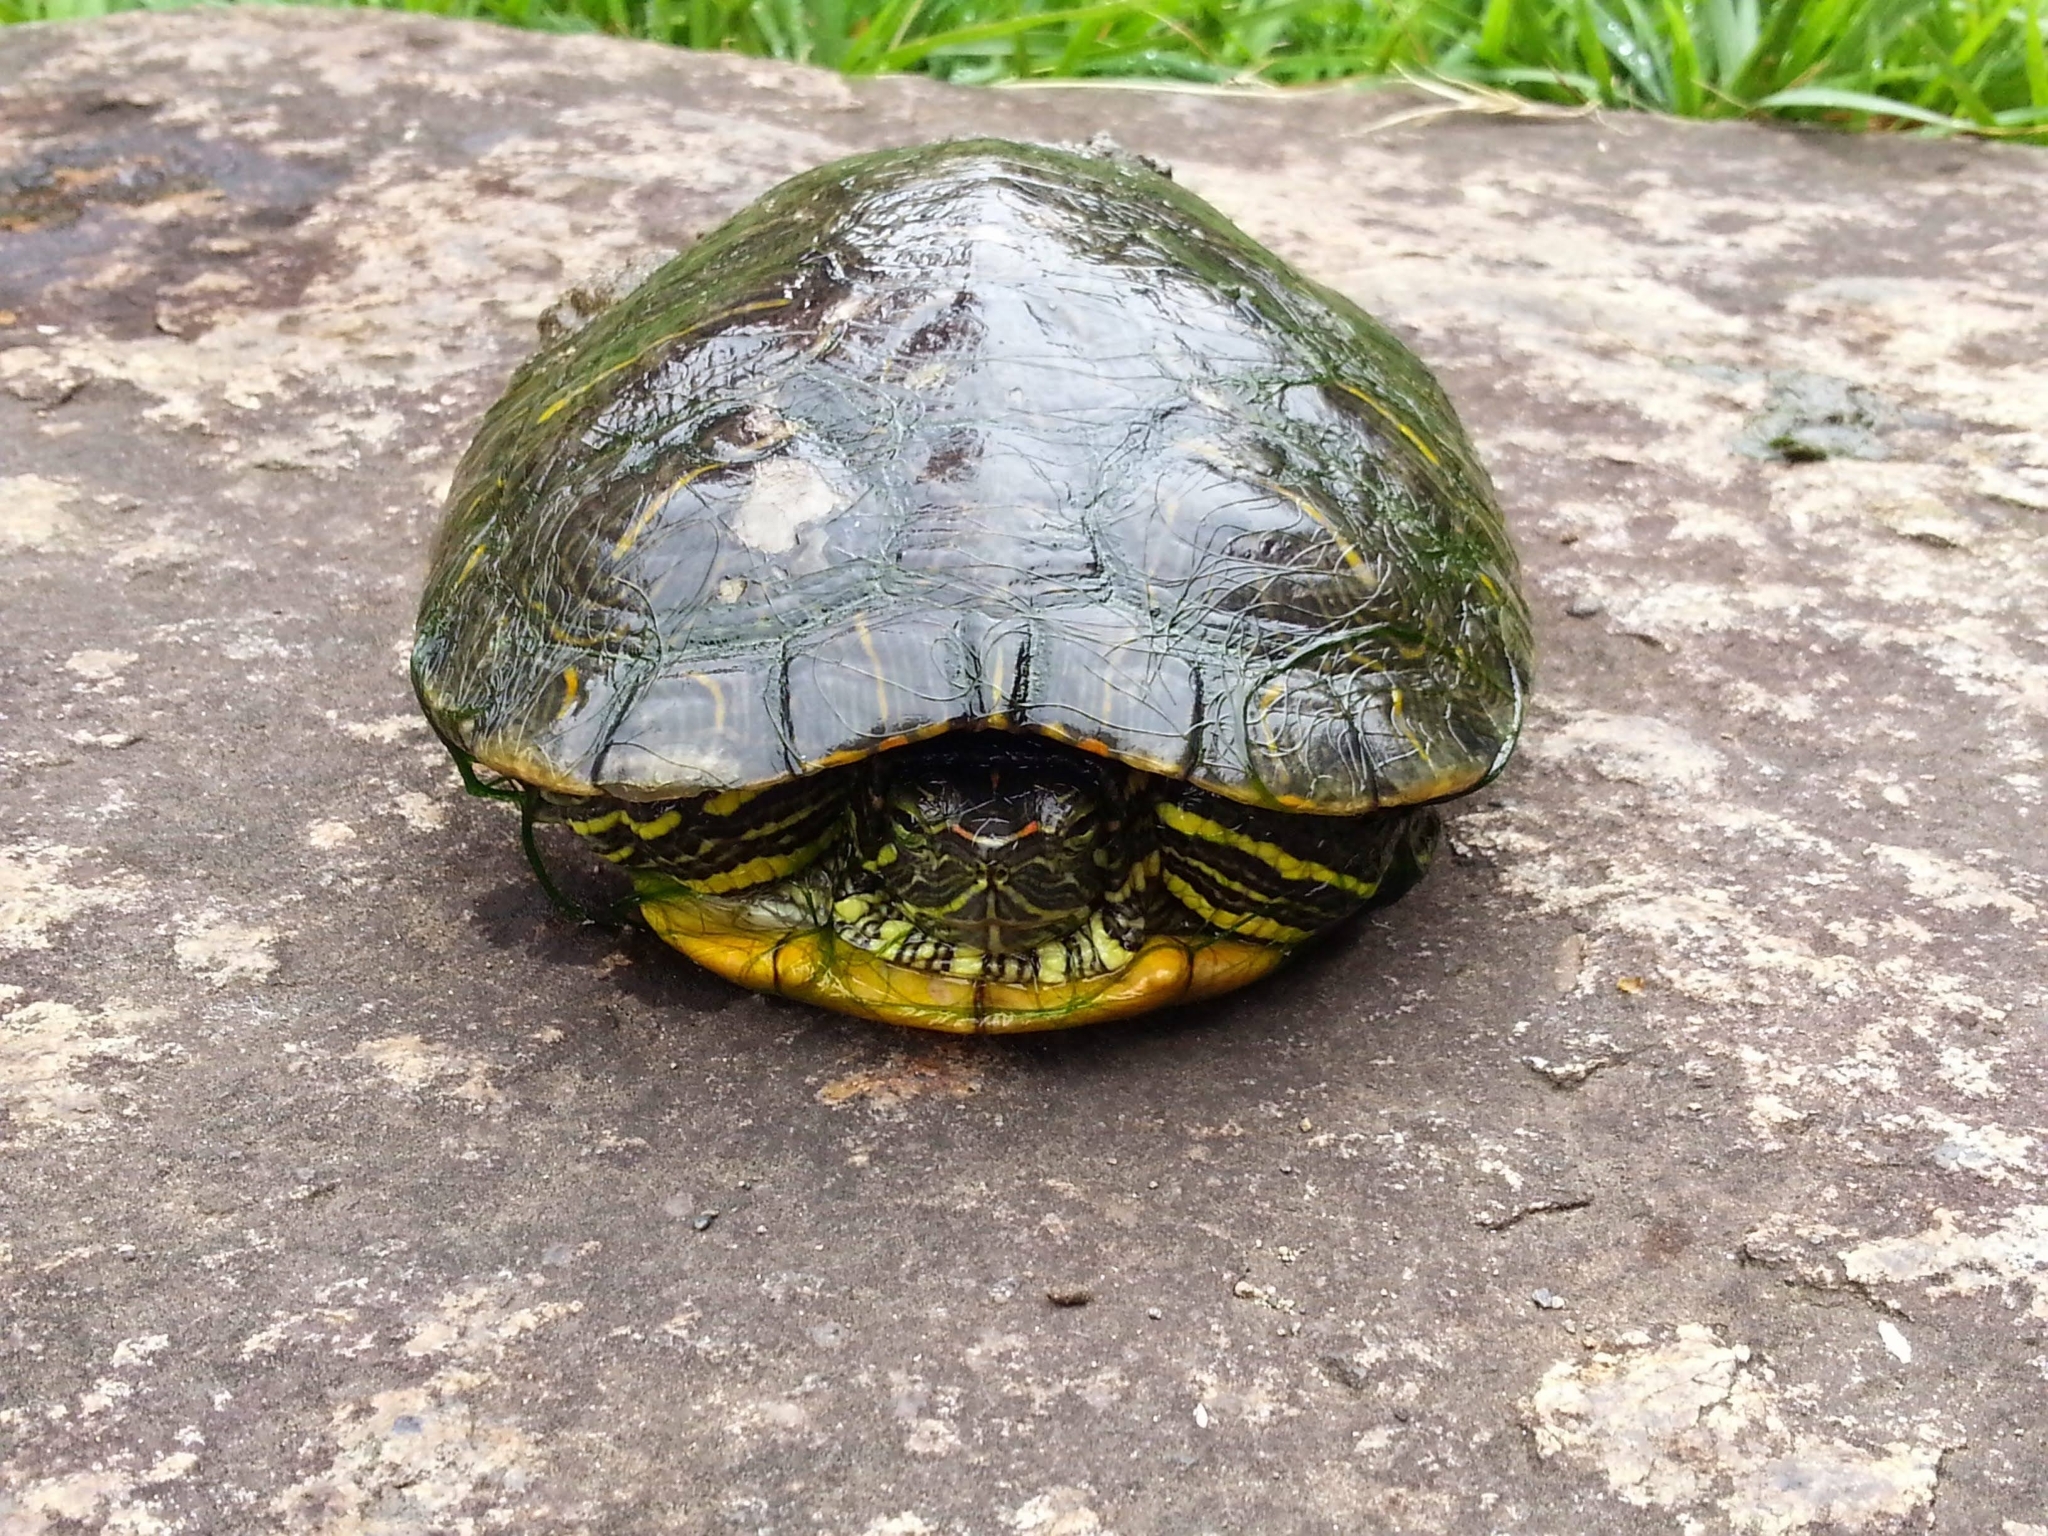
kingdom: Animalia
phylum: Chordata
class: Testudines
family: Emydidae
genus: Trachemys
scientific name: Trachemys scripta
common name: Slider
